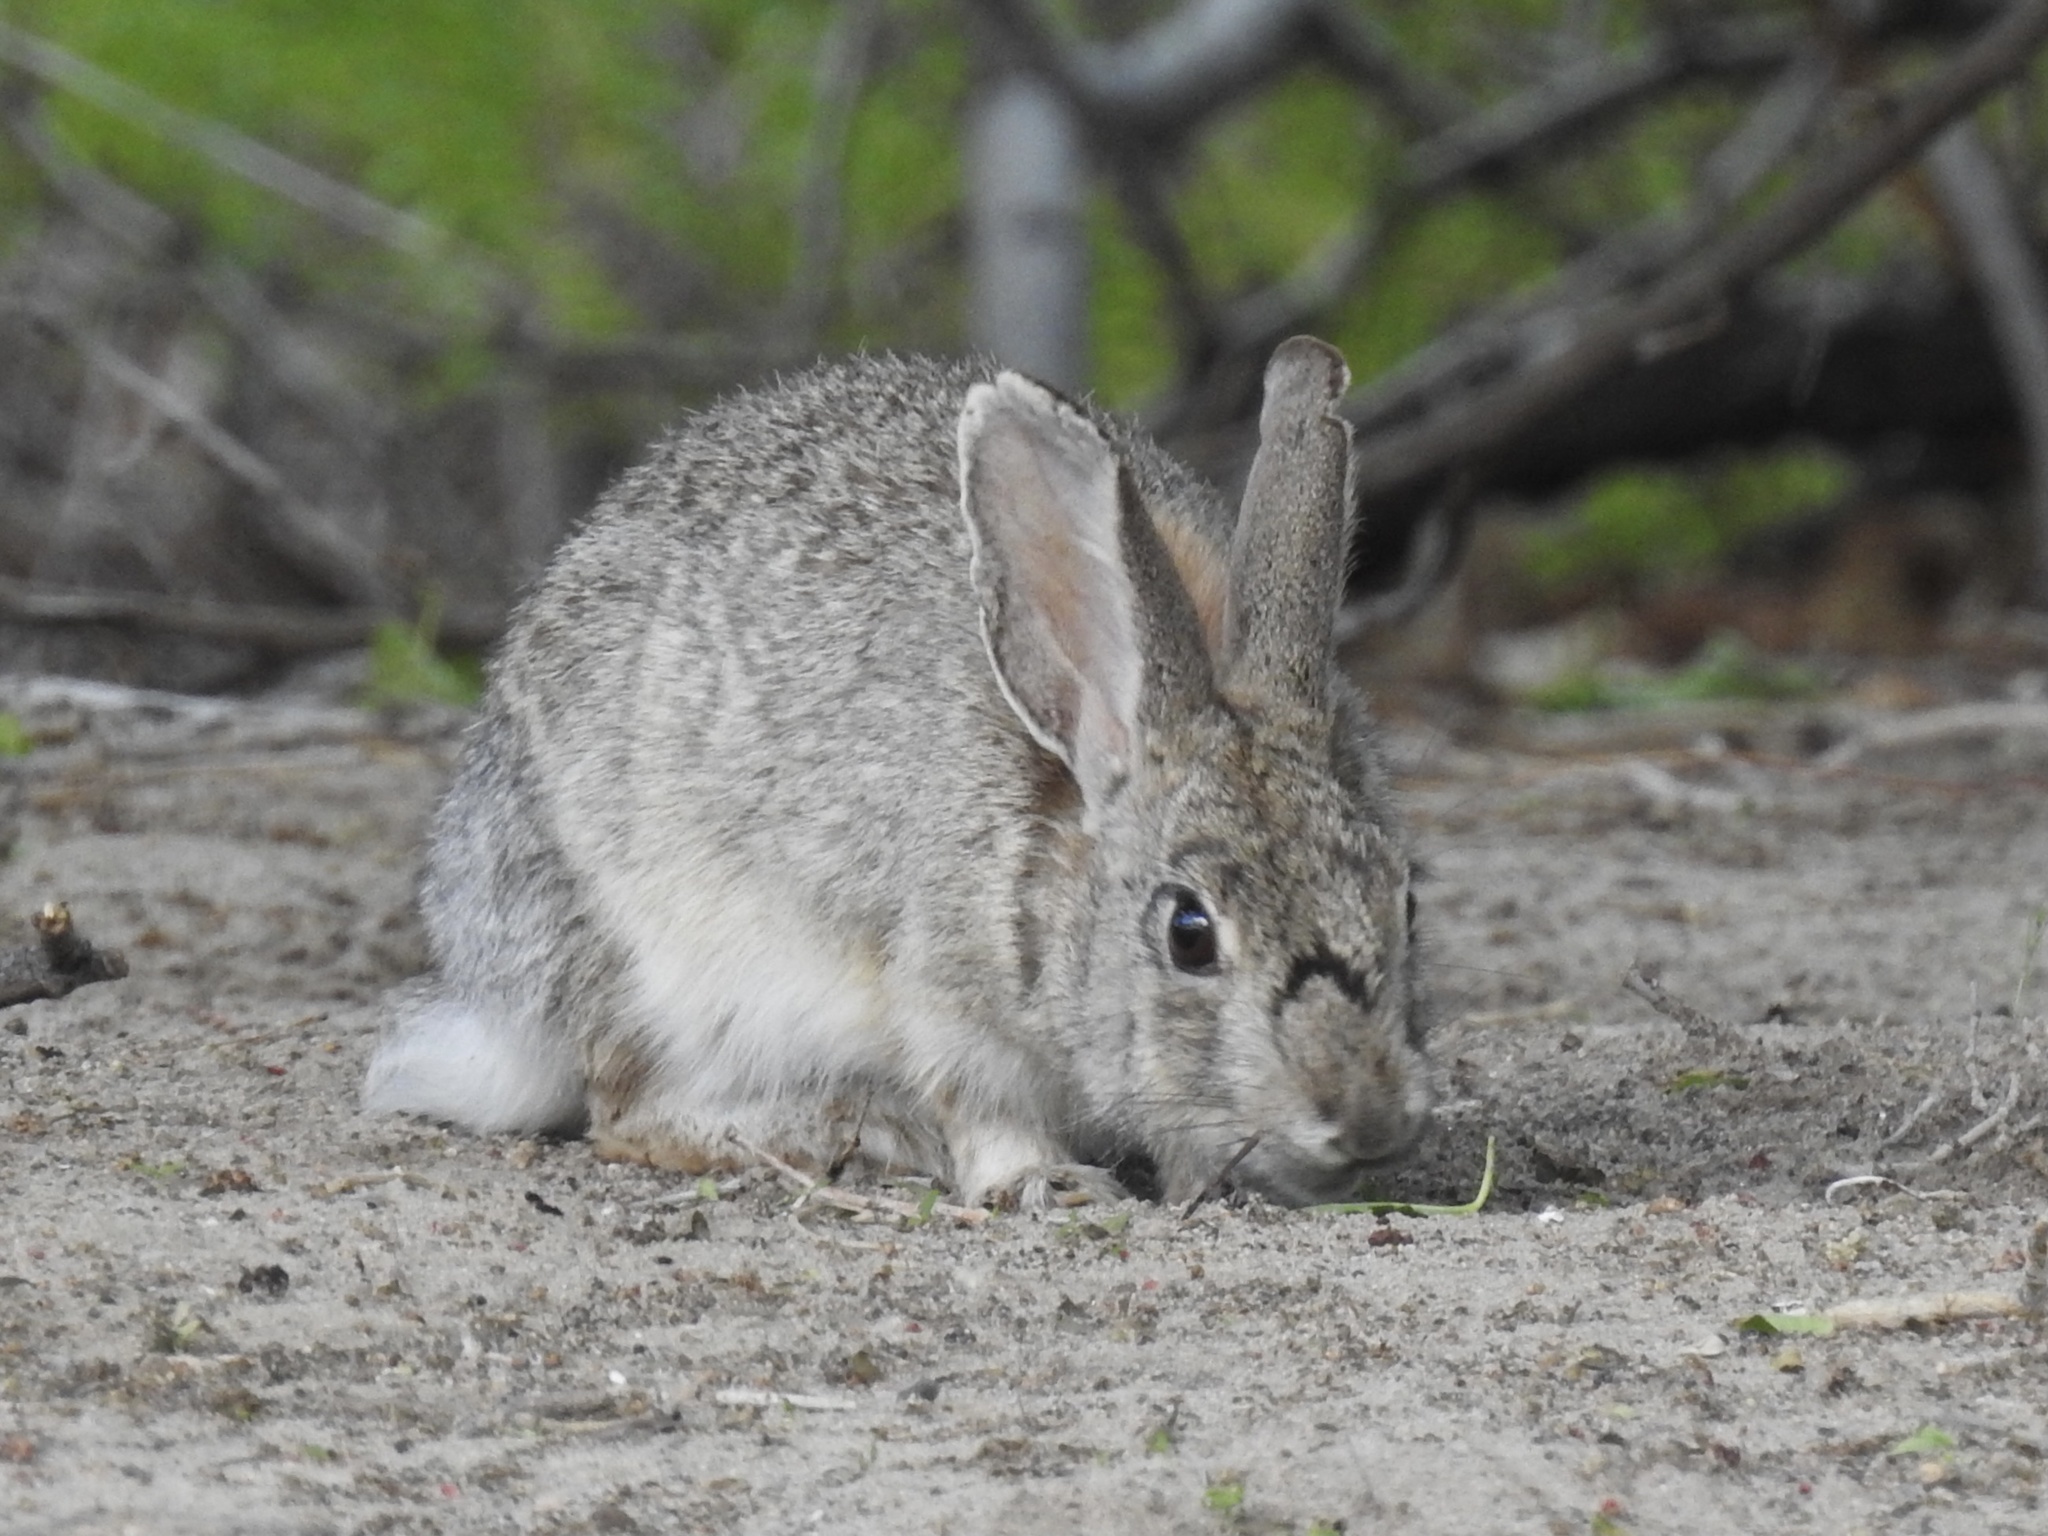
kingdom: Animalia
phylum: Chordata
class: Mammalia
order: Lagomorpha
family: Leporidae
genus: Sylvilagus
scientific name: Sylvilagus audubonii
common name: Desert cottontail
